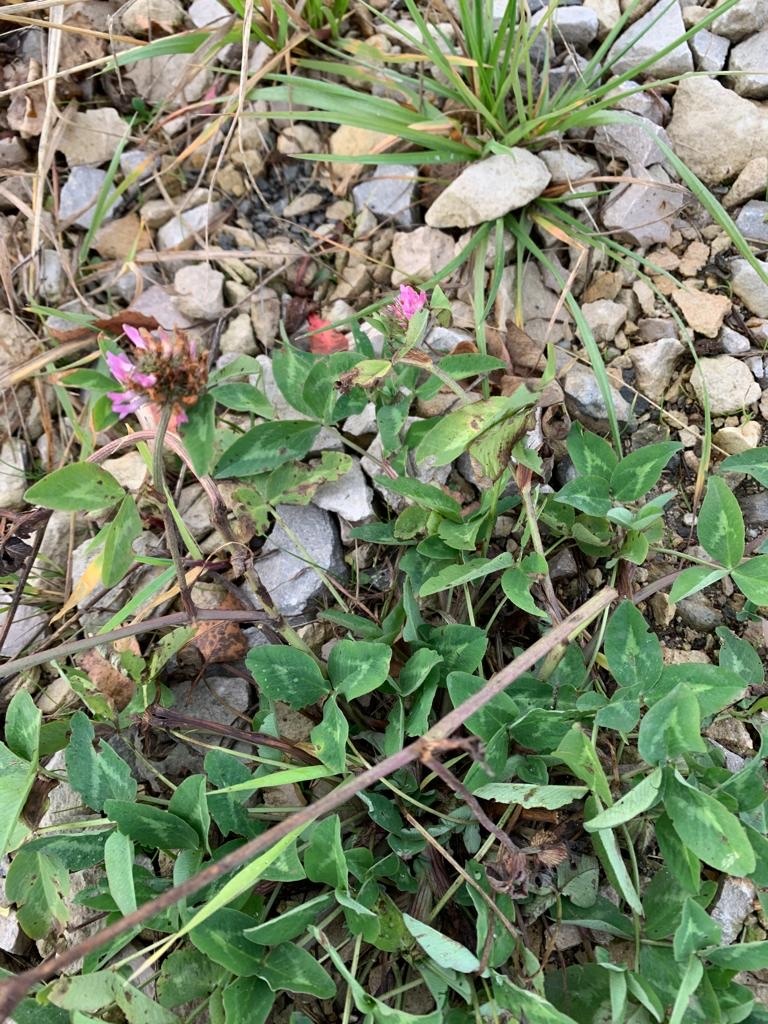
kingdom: Plantae
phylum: Tracheophyta
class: Magnoliopsida
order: Fabales
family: Fabaceae
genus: Trifolium
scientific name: Trifolium pratense
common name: Red clover
